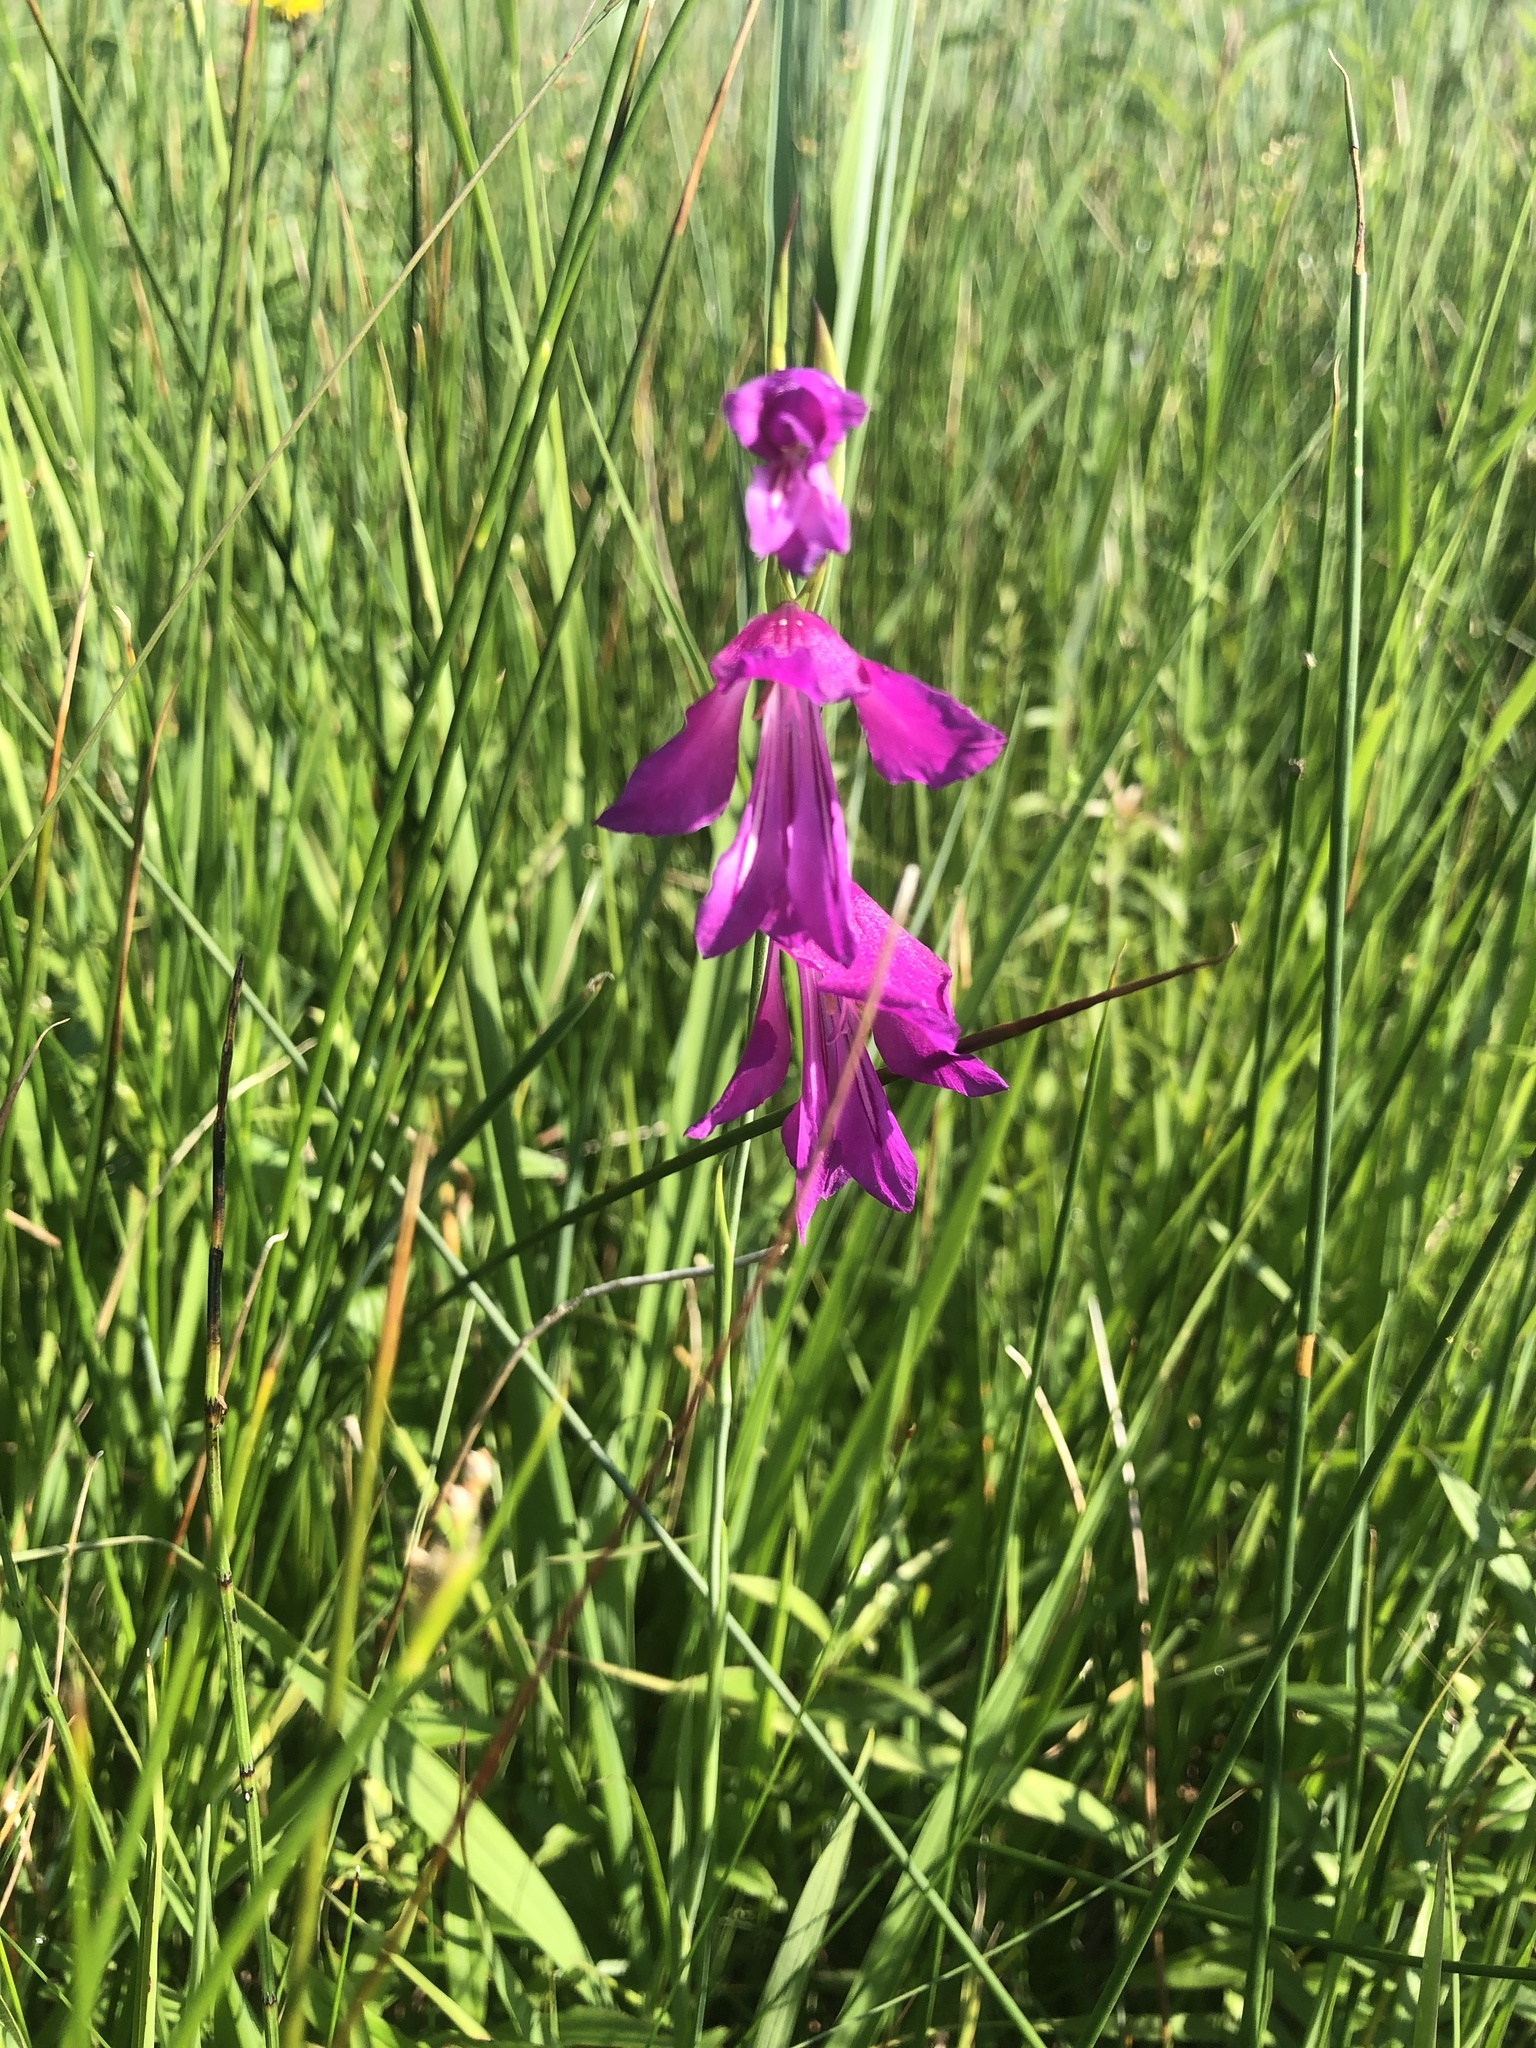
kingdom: Plantae
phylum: Tracheophyta
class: Liliopsida
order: Asparagales
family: Iridaceae
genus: Gladiolus
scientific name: Gladiolus palustris
